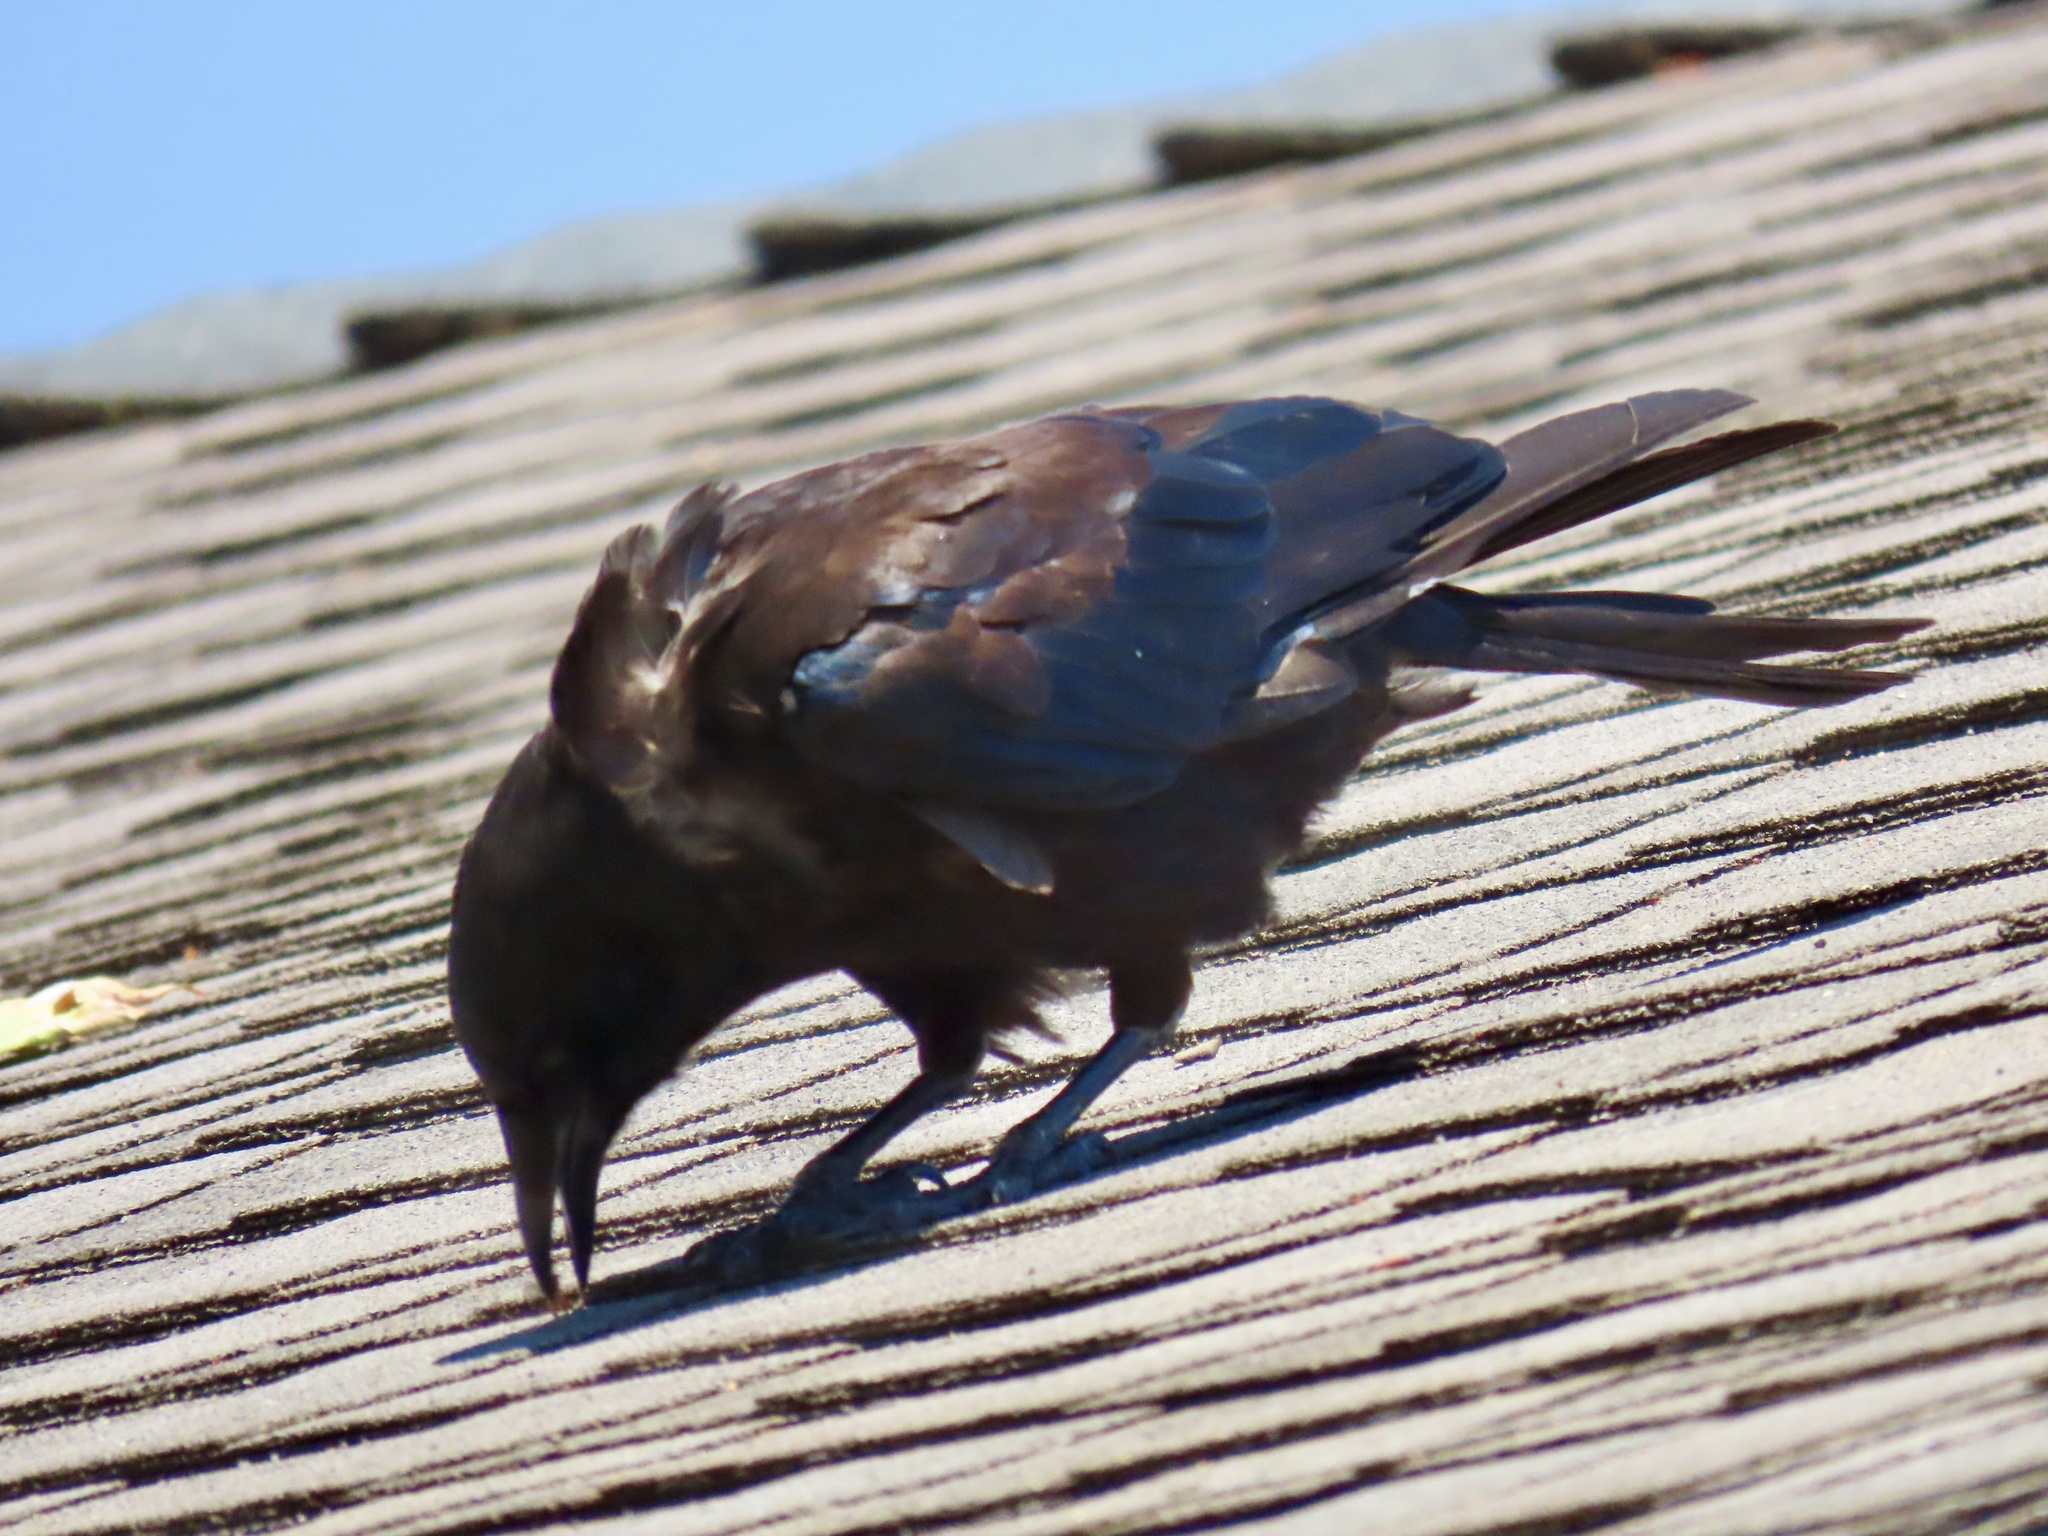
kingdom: Animalia
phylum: Chordata
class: Aves
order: Passeriformes
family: Corvidae
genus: Corvus
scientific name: Corvus brachyrhynchos
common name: American crow
